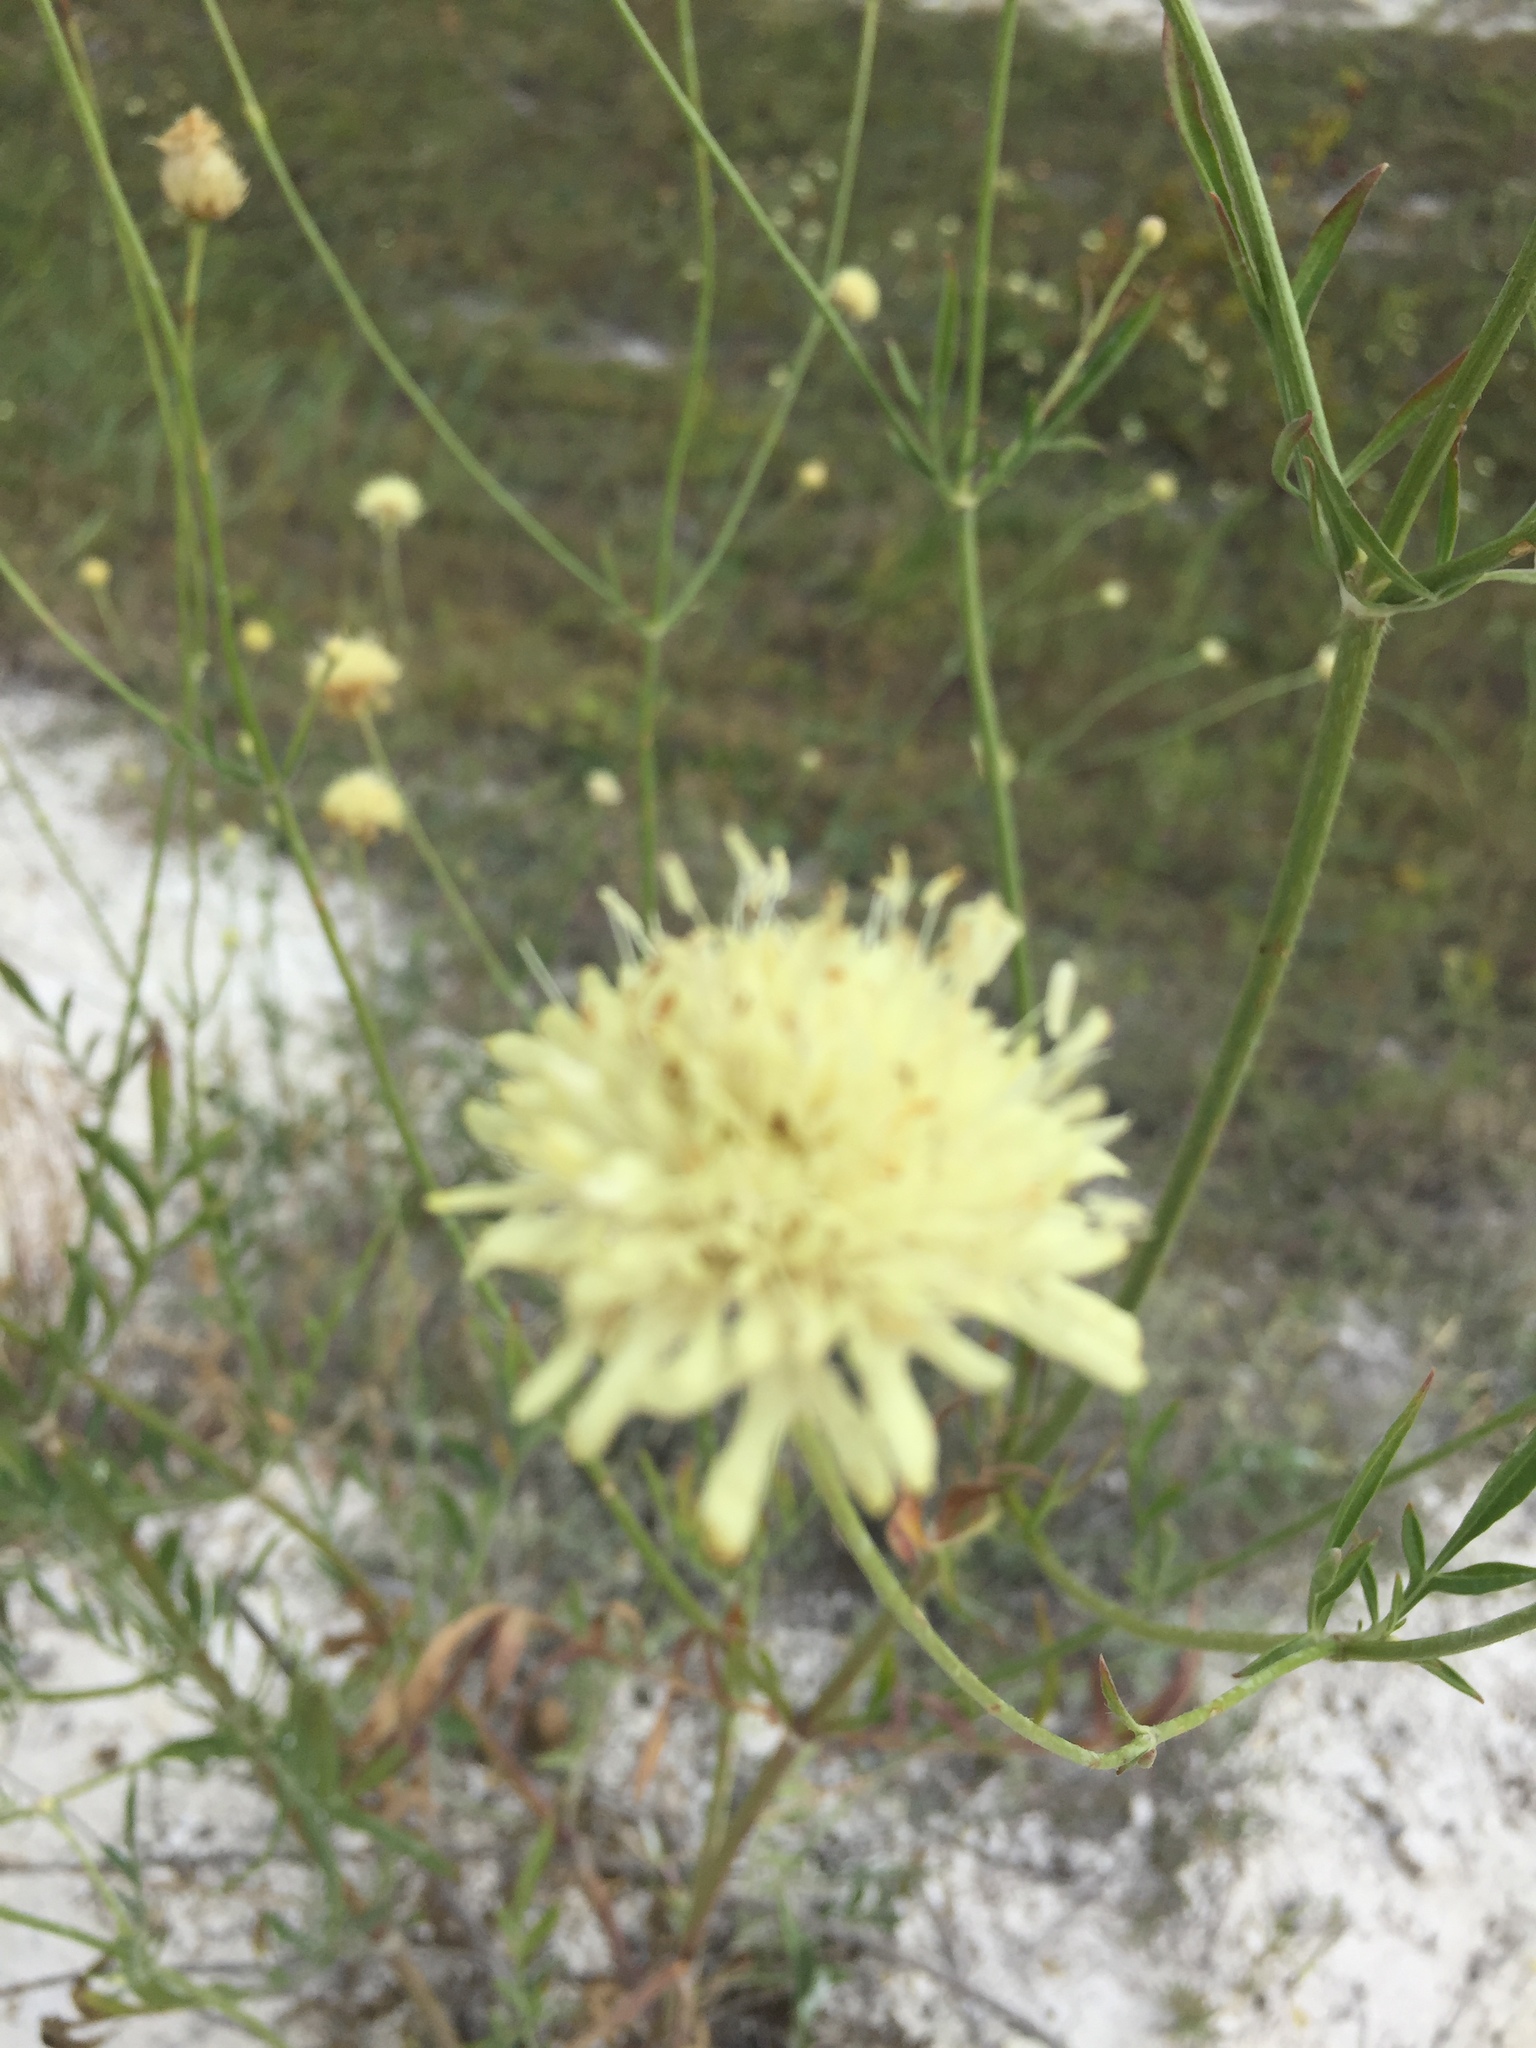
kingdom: Plantae
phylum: Tracheophyta
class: Magnoliopsida
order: Dipsacales
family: Caprifoliaceae
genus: Cephalaria
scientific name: Cephalaria uralensis
